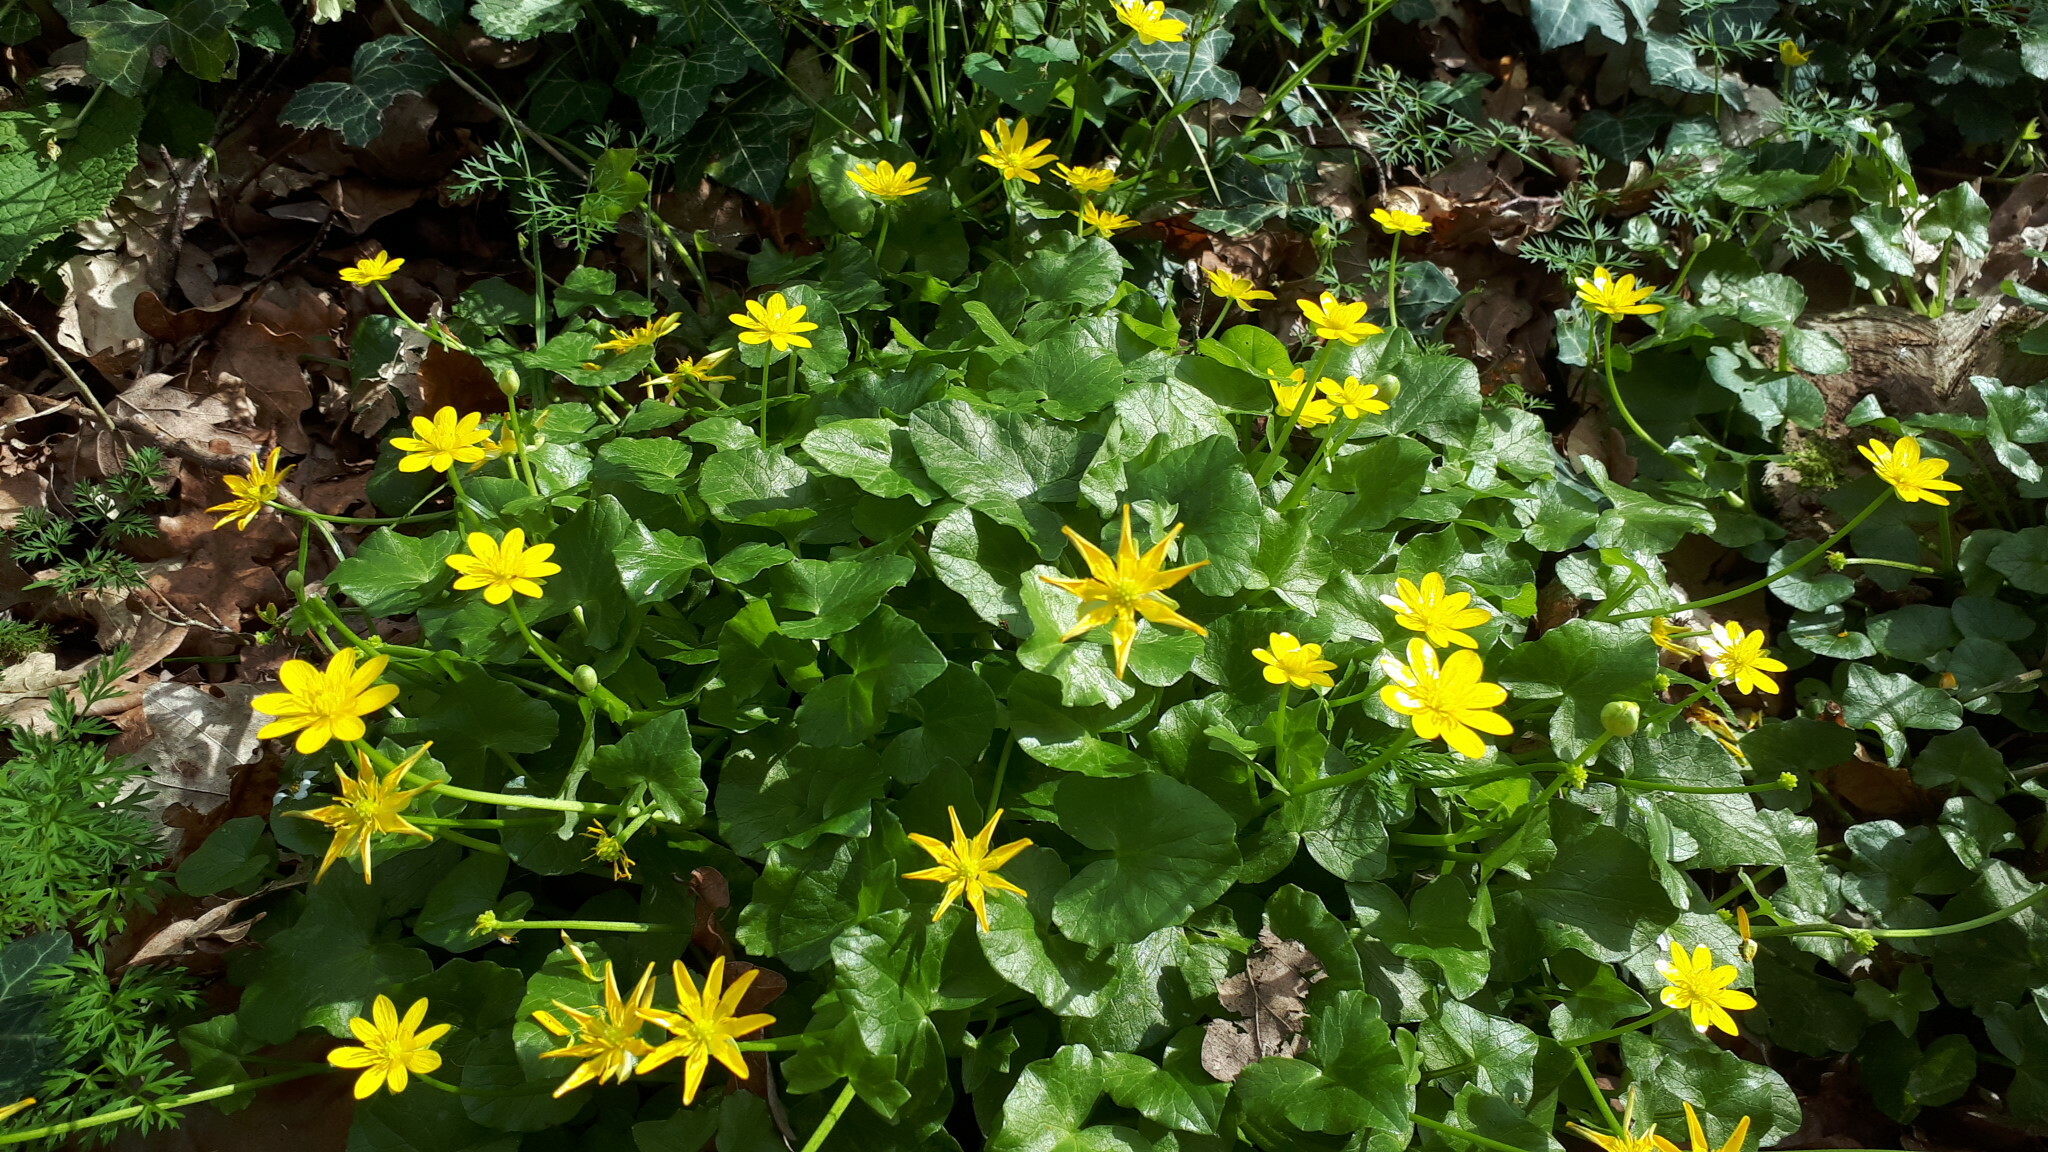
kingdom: Plantae
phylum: Tracheophyta
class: Magnoliopsida
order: Ranunculales
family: Ranunculaceae
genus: Ficaria
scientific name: Ficaria verna
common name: Lesser celandine
